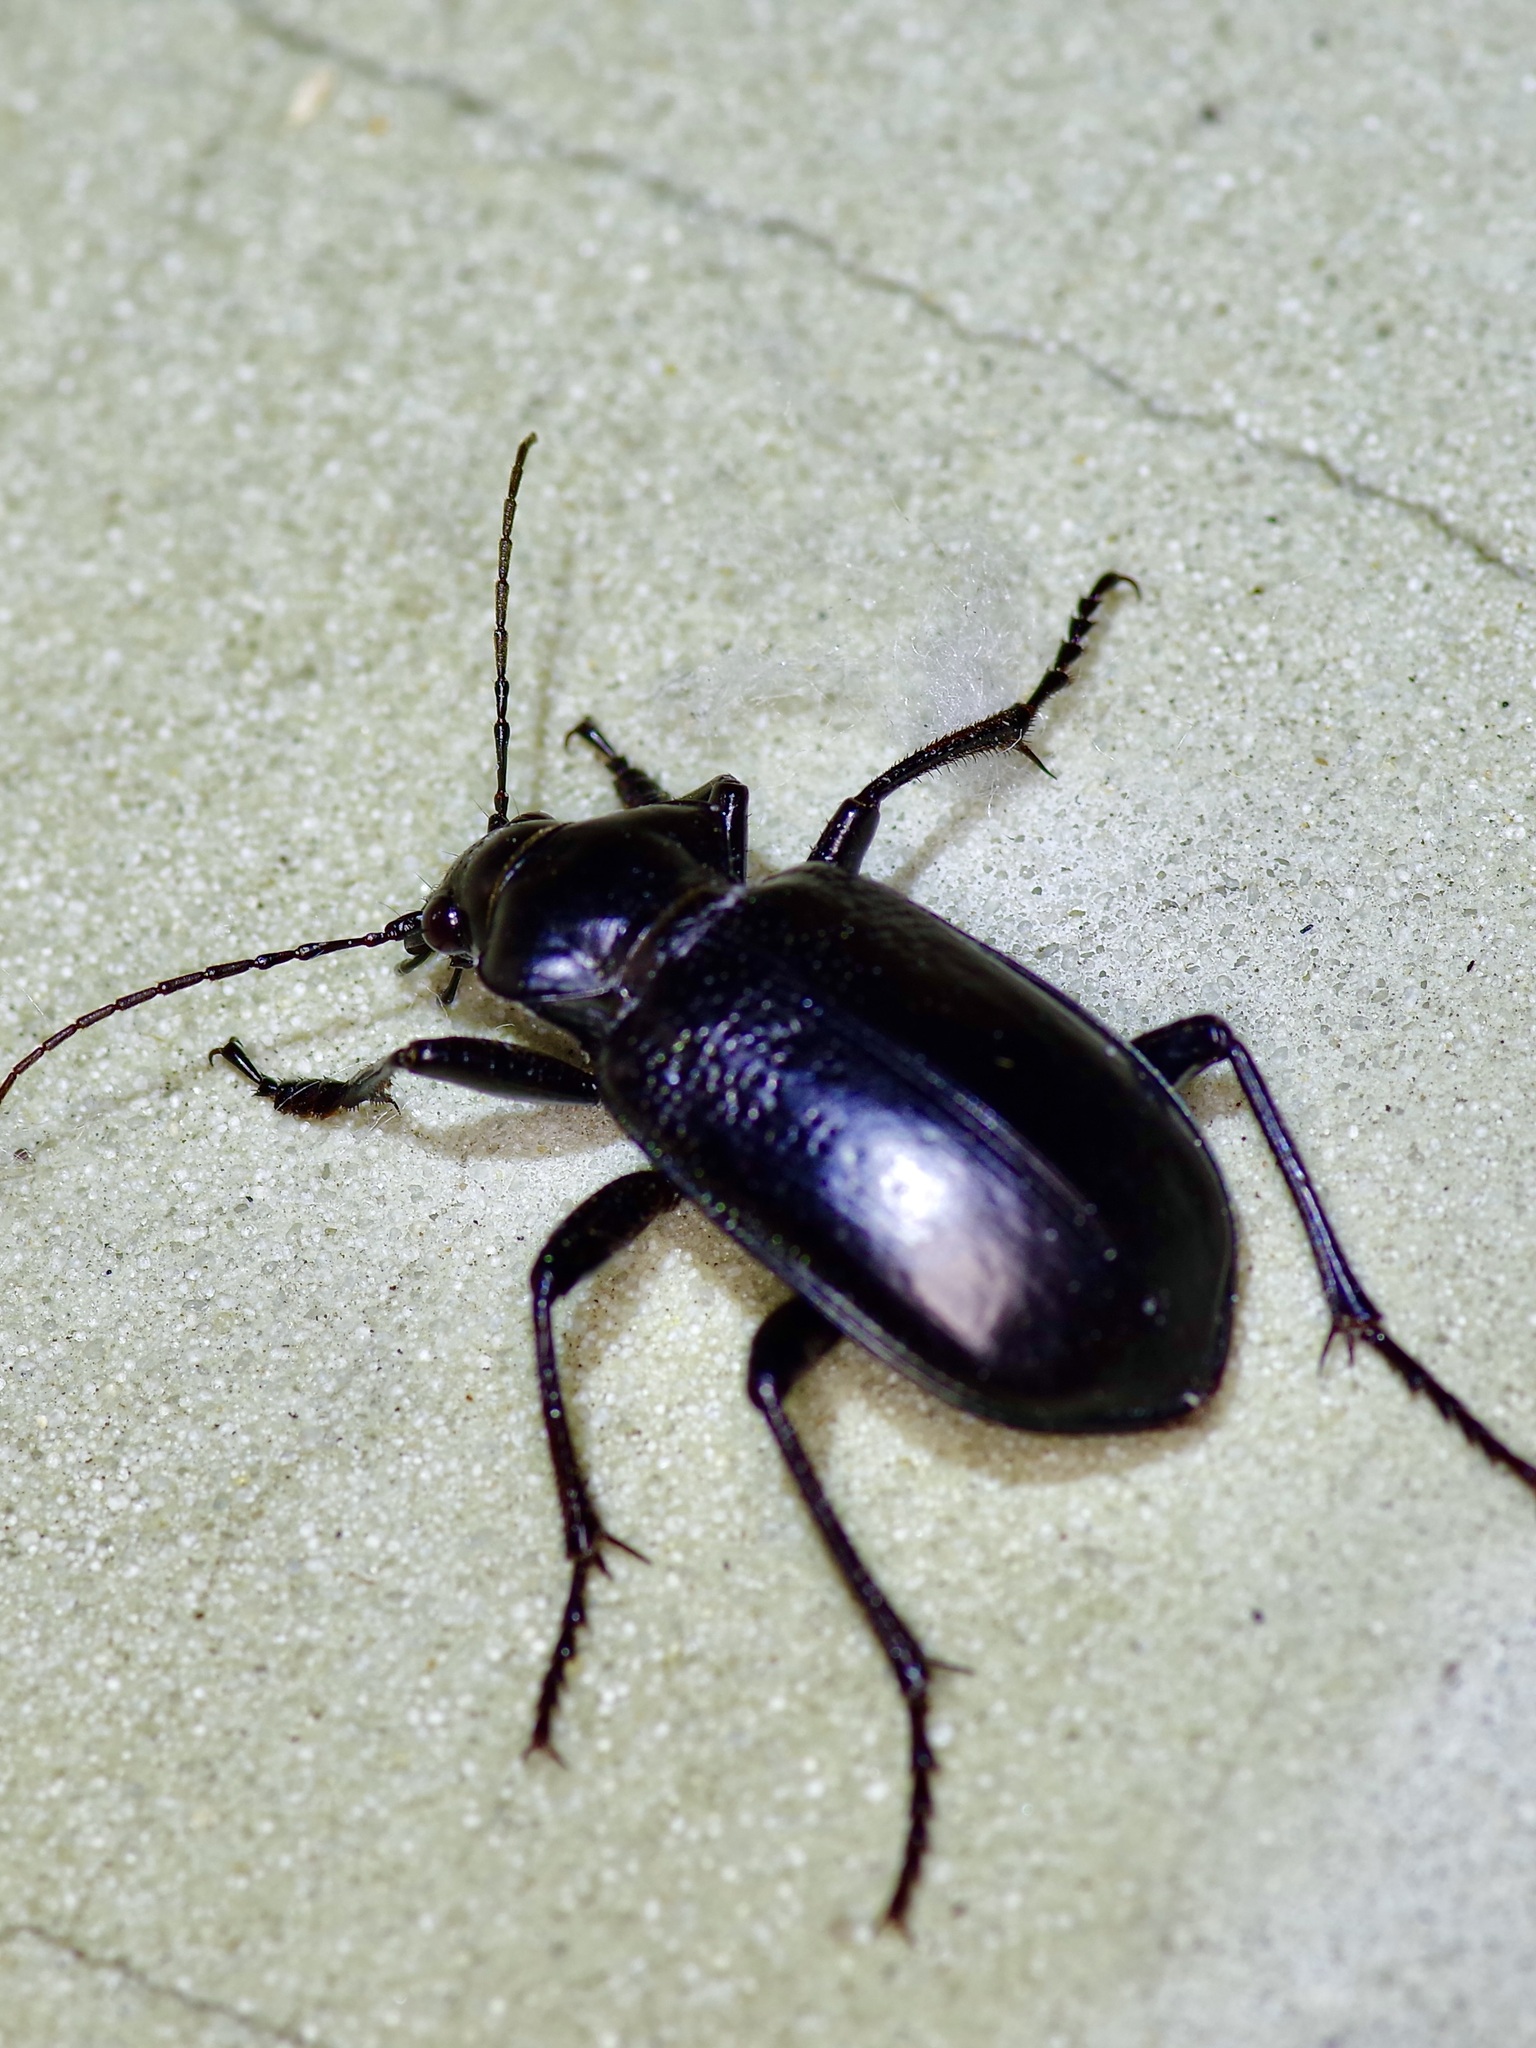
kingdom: Animalia
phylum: Arthropoda
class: Insecta
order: Coleoptera
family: Carabidae
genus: Calosoma
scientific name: Calosoma marginale
